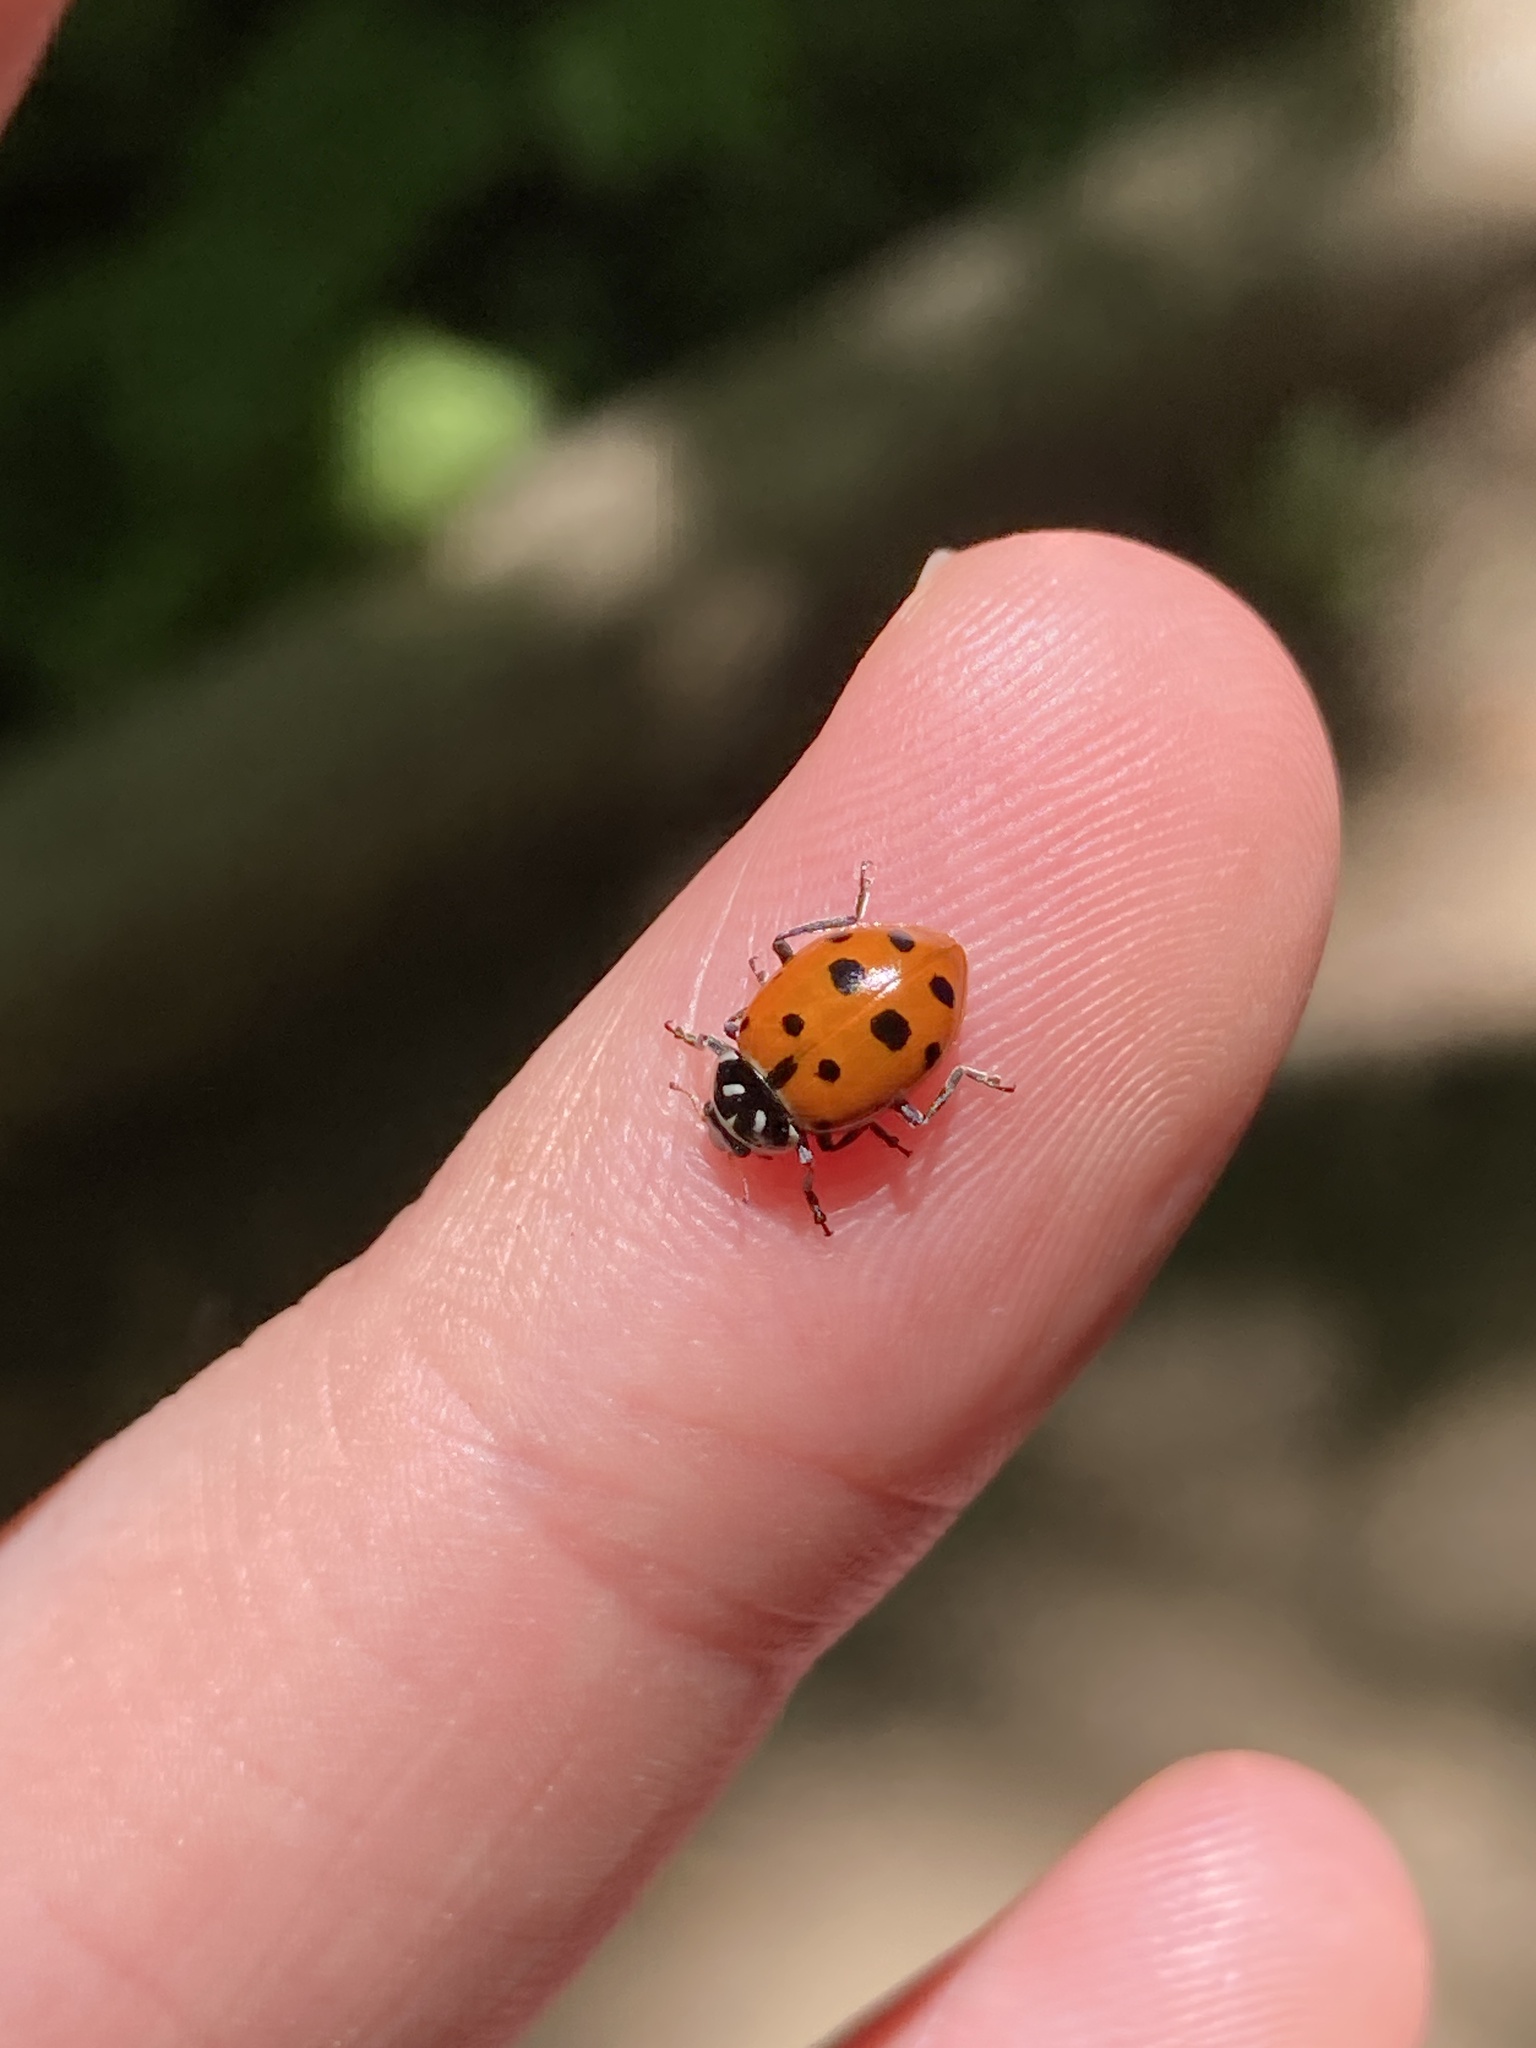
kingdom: Animalia
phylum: Arthropoda
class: Insecta
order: Coleoptera
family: Coccinellidae
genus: Hippodamia
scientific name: Hippodamia convergens
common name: Convergent lady beetle
